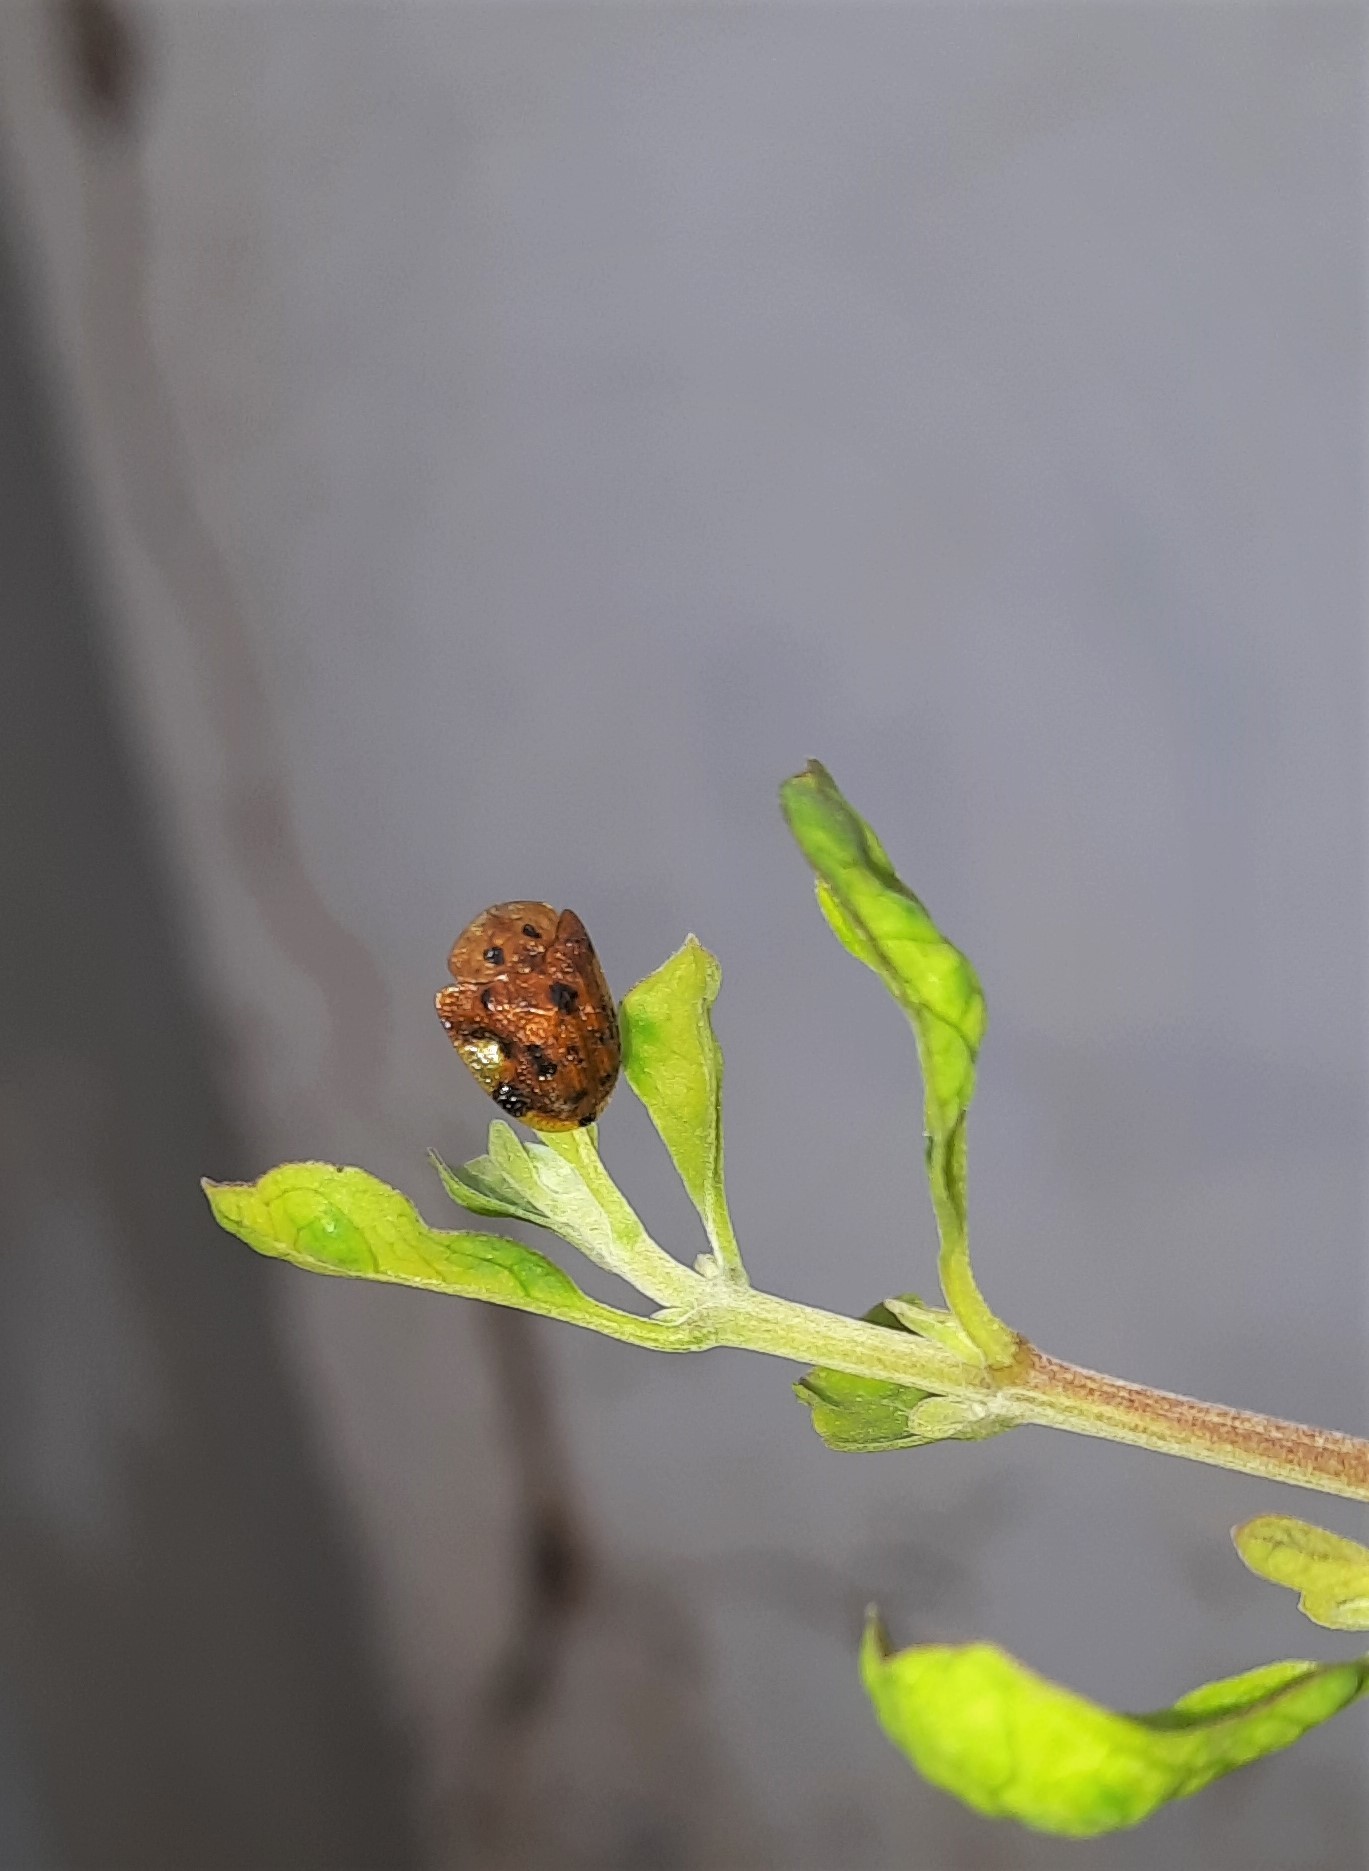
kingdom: Animalia
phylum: Arthropoda
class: Insecta
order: Coleoptera
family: Chrysomelidae
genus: Laccoptera
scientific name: Laccoptera nepalensis
